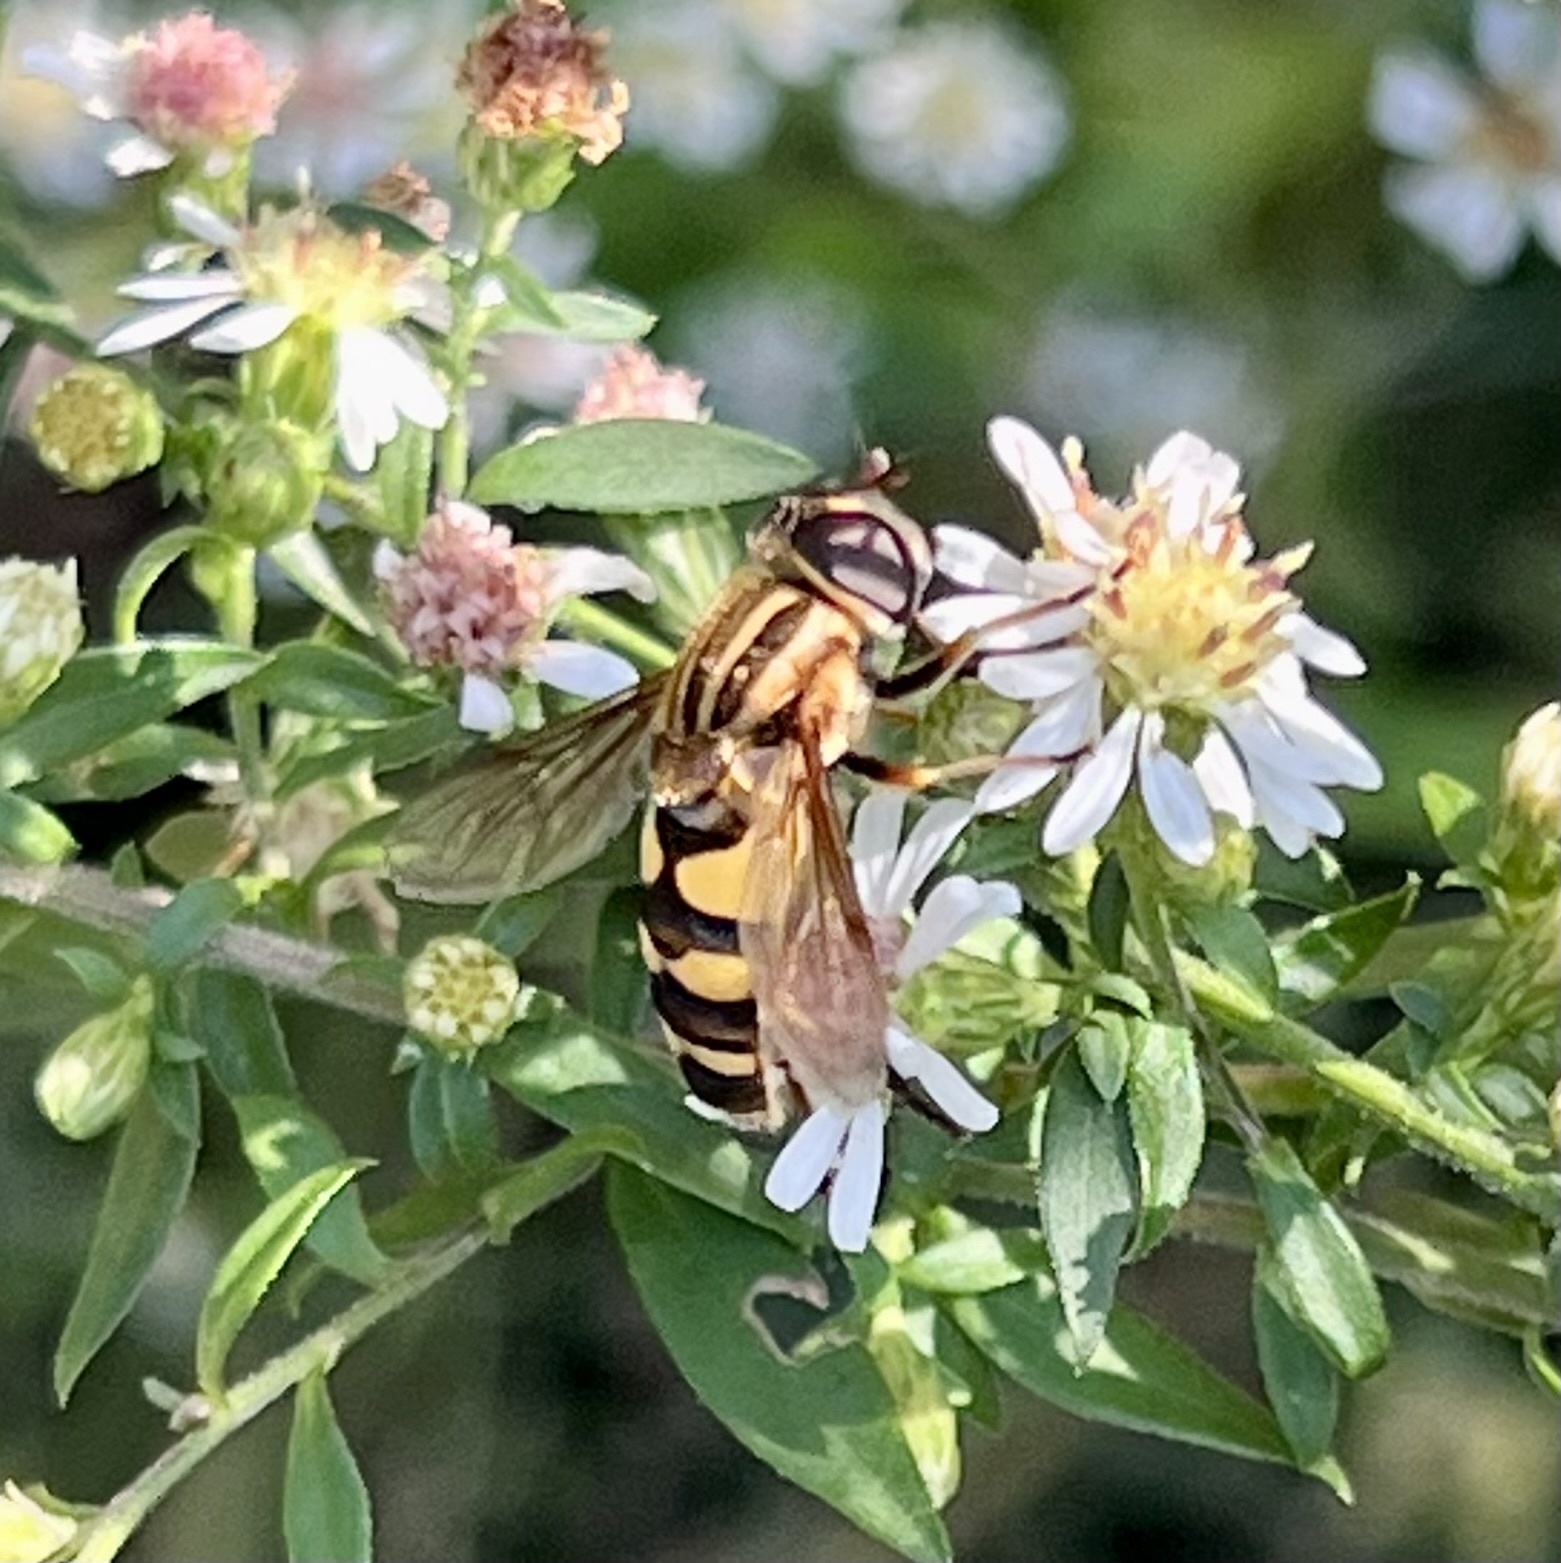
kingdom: Animalia
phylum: Arthropoda
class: Insecta
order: Diptera
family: Syrphidae
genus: Helophilus
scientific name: Helophilus fasciatus
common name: Narrow-headed marsh fly
